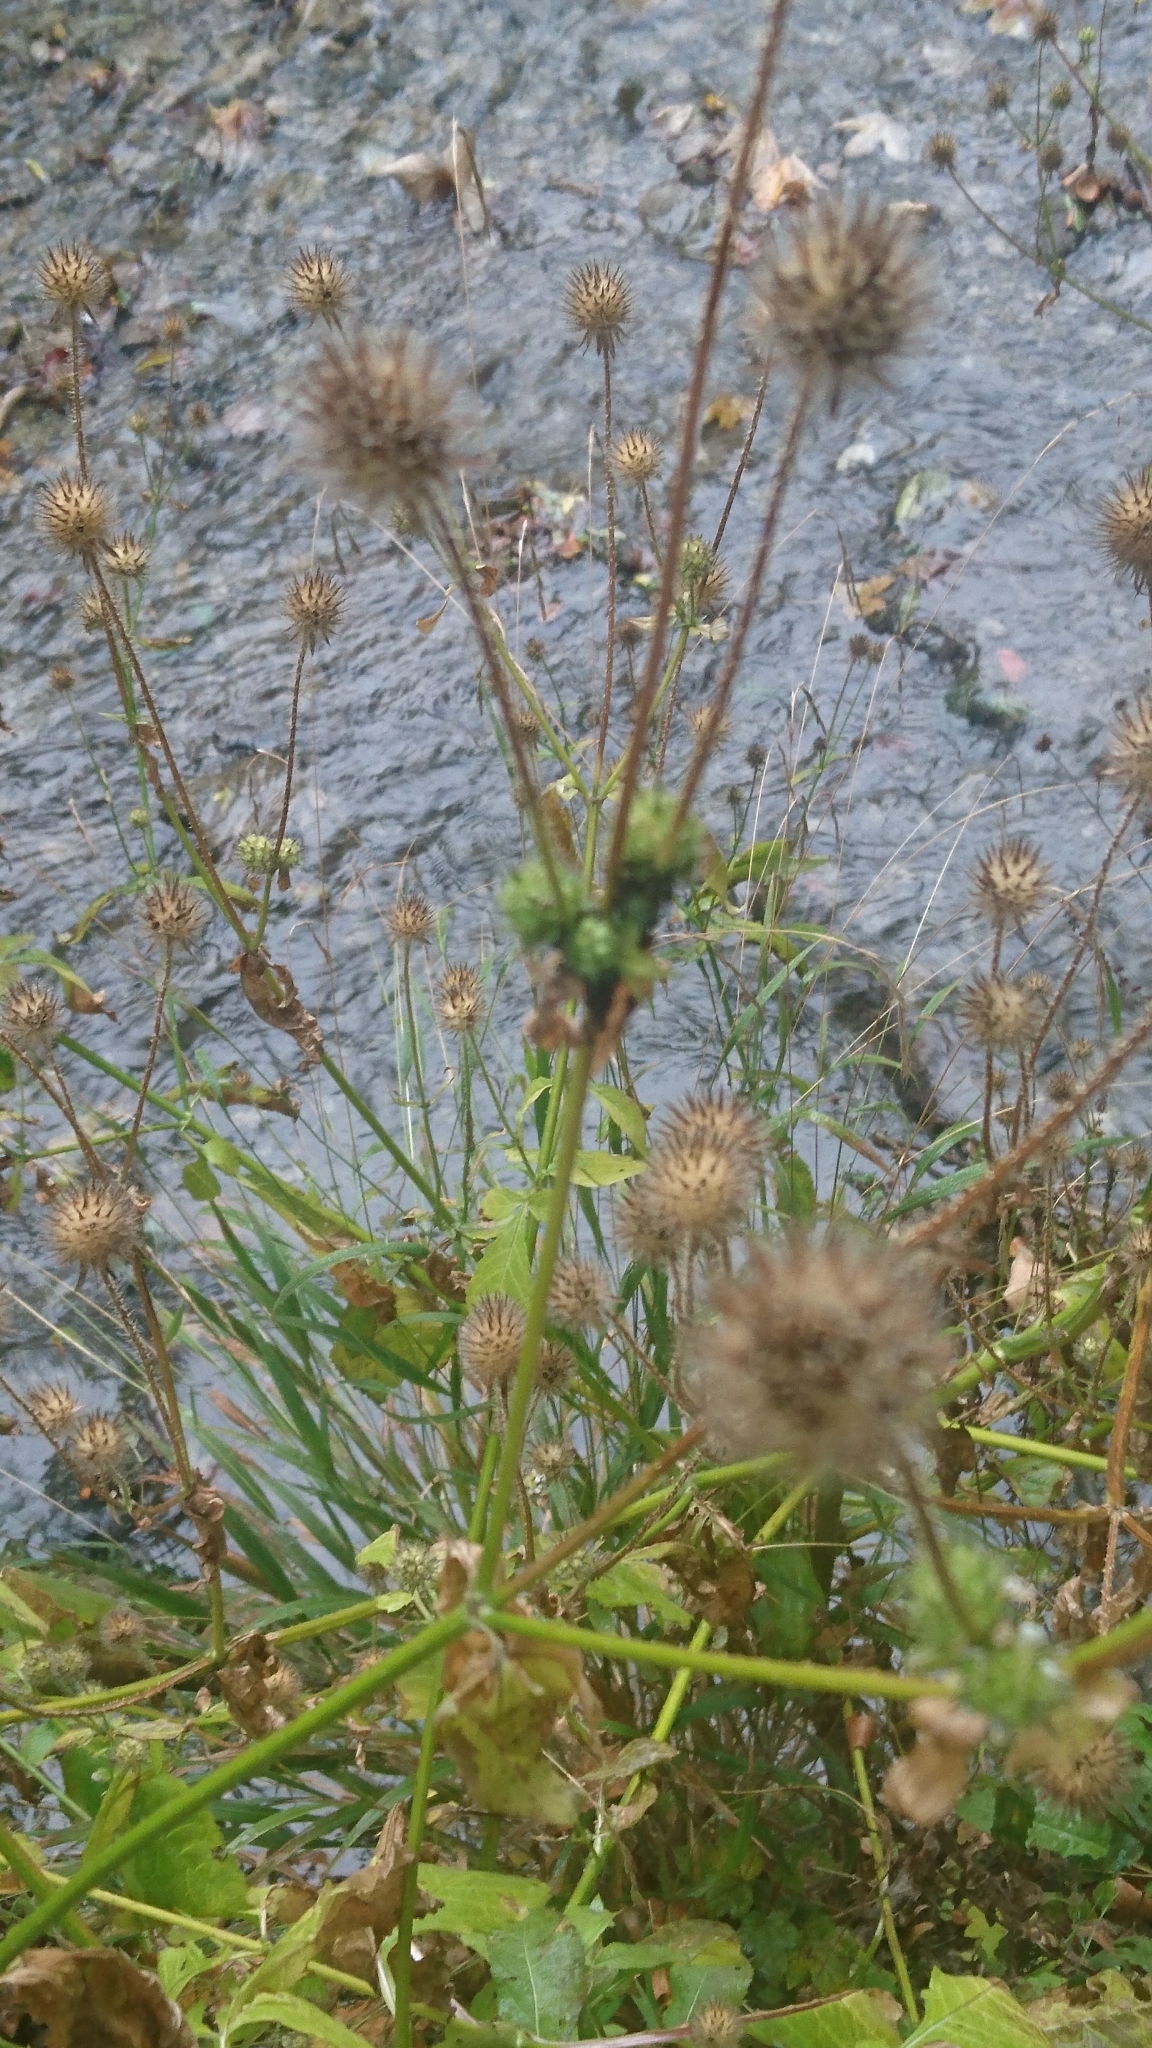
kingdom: Plantae
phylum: Tracheophyta
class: Magnoliopsida
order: Dipsacales
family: Caprifoliaceae
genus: Dipsacus
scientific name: Dipsacus pilosus
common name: Small teasel
